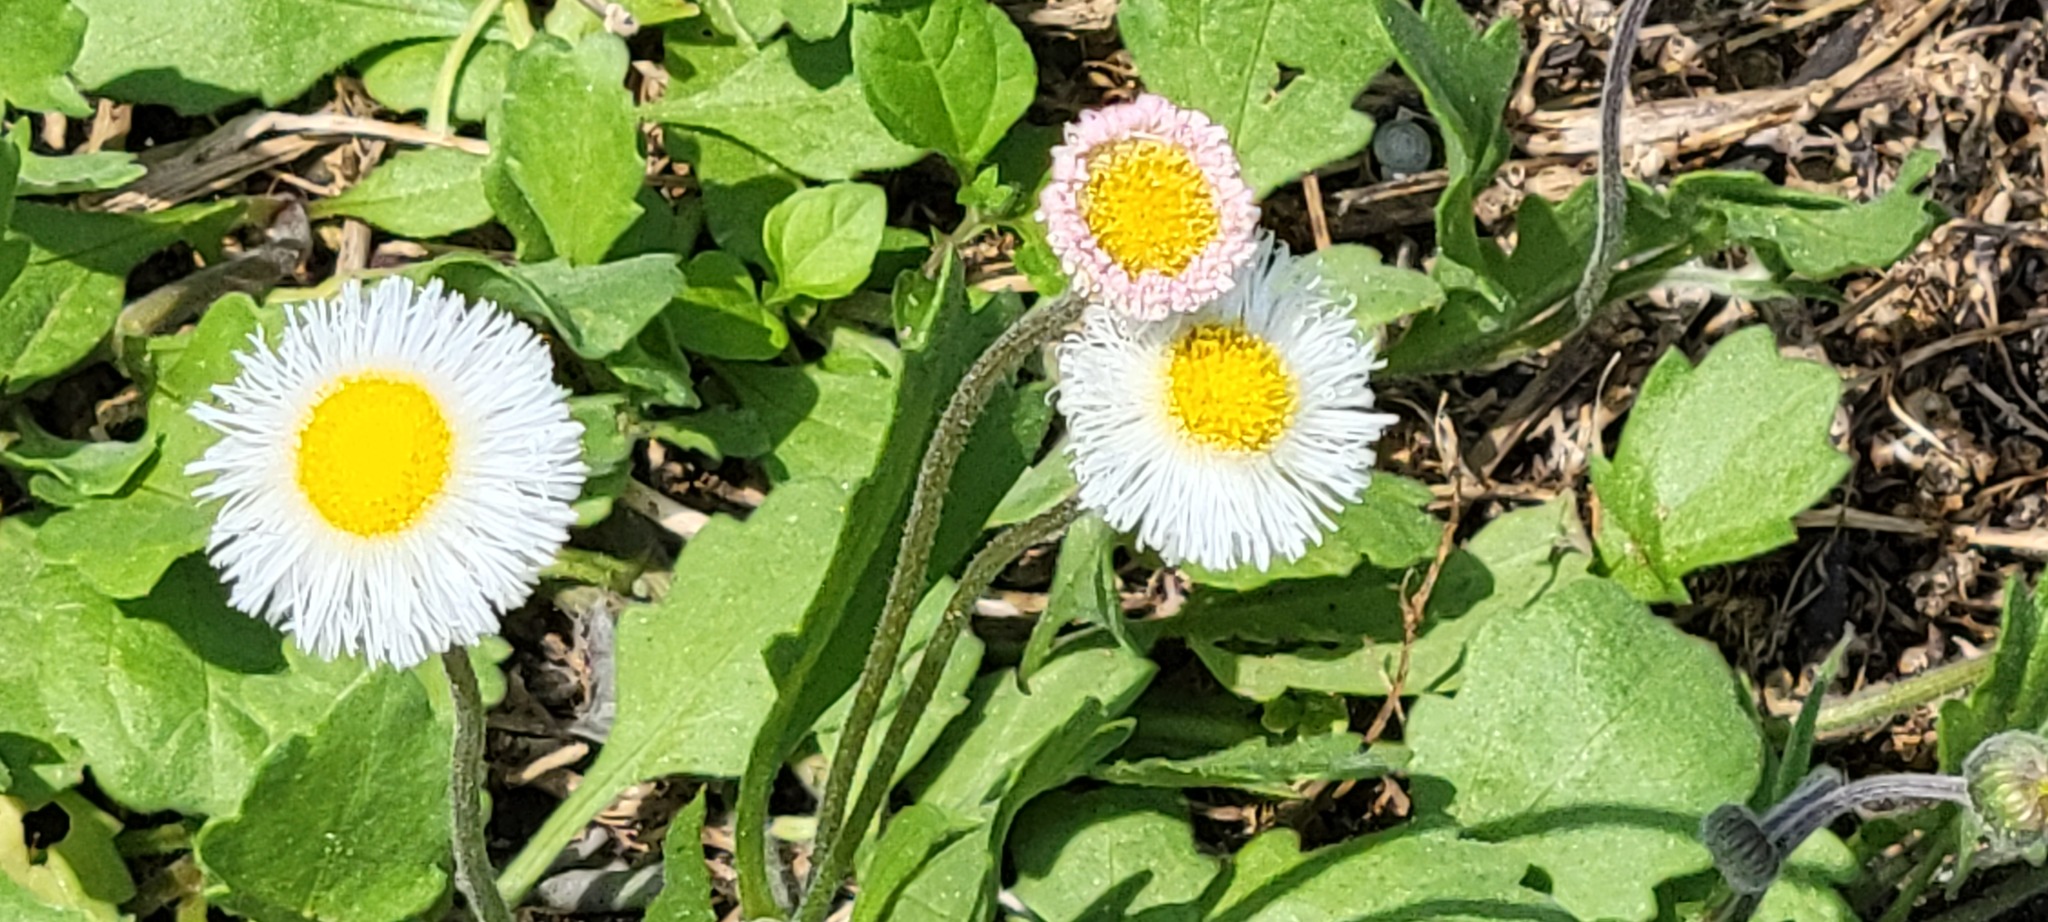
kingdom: Plantae
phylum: Tracheophyta
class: Magnoliopsida
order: Asterales
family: Asteraceae
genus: Erigeron
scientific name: Erigeron procumbens
